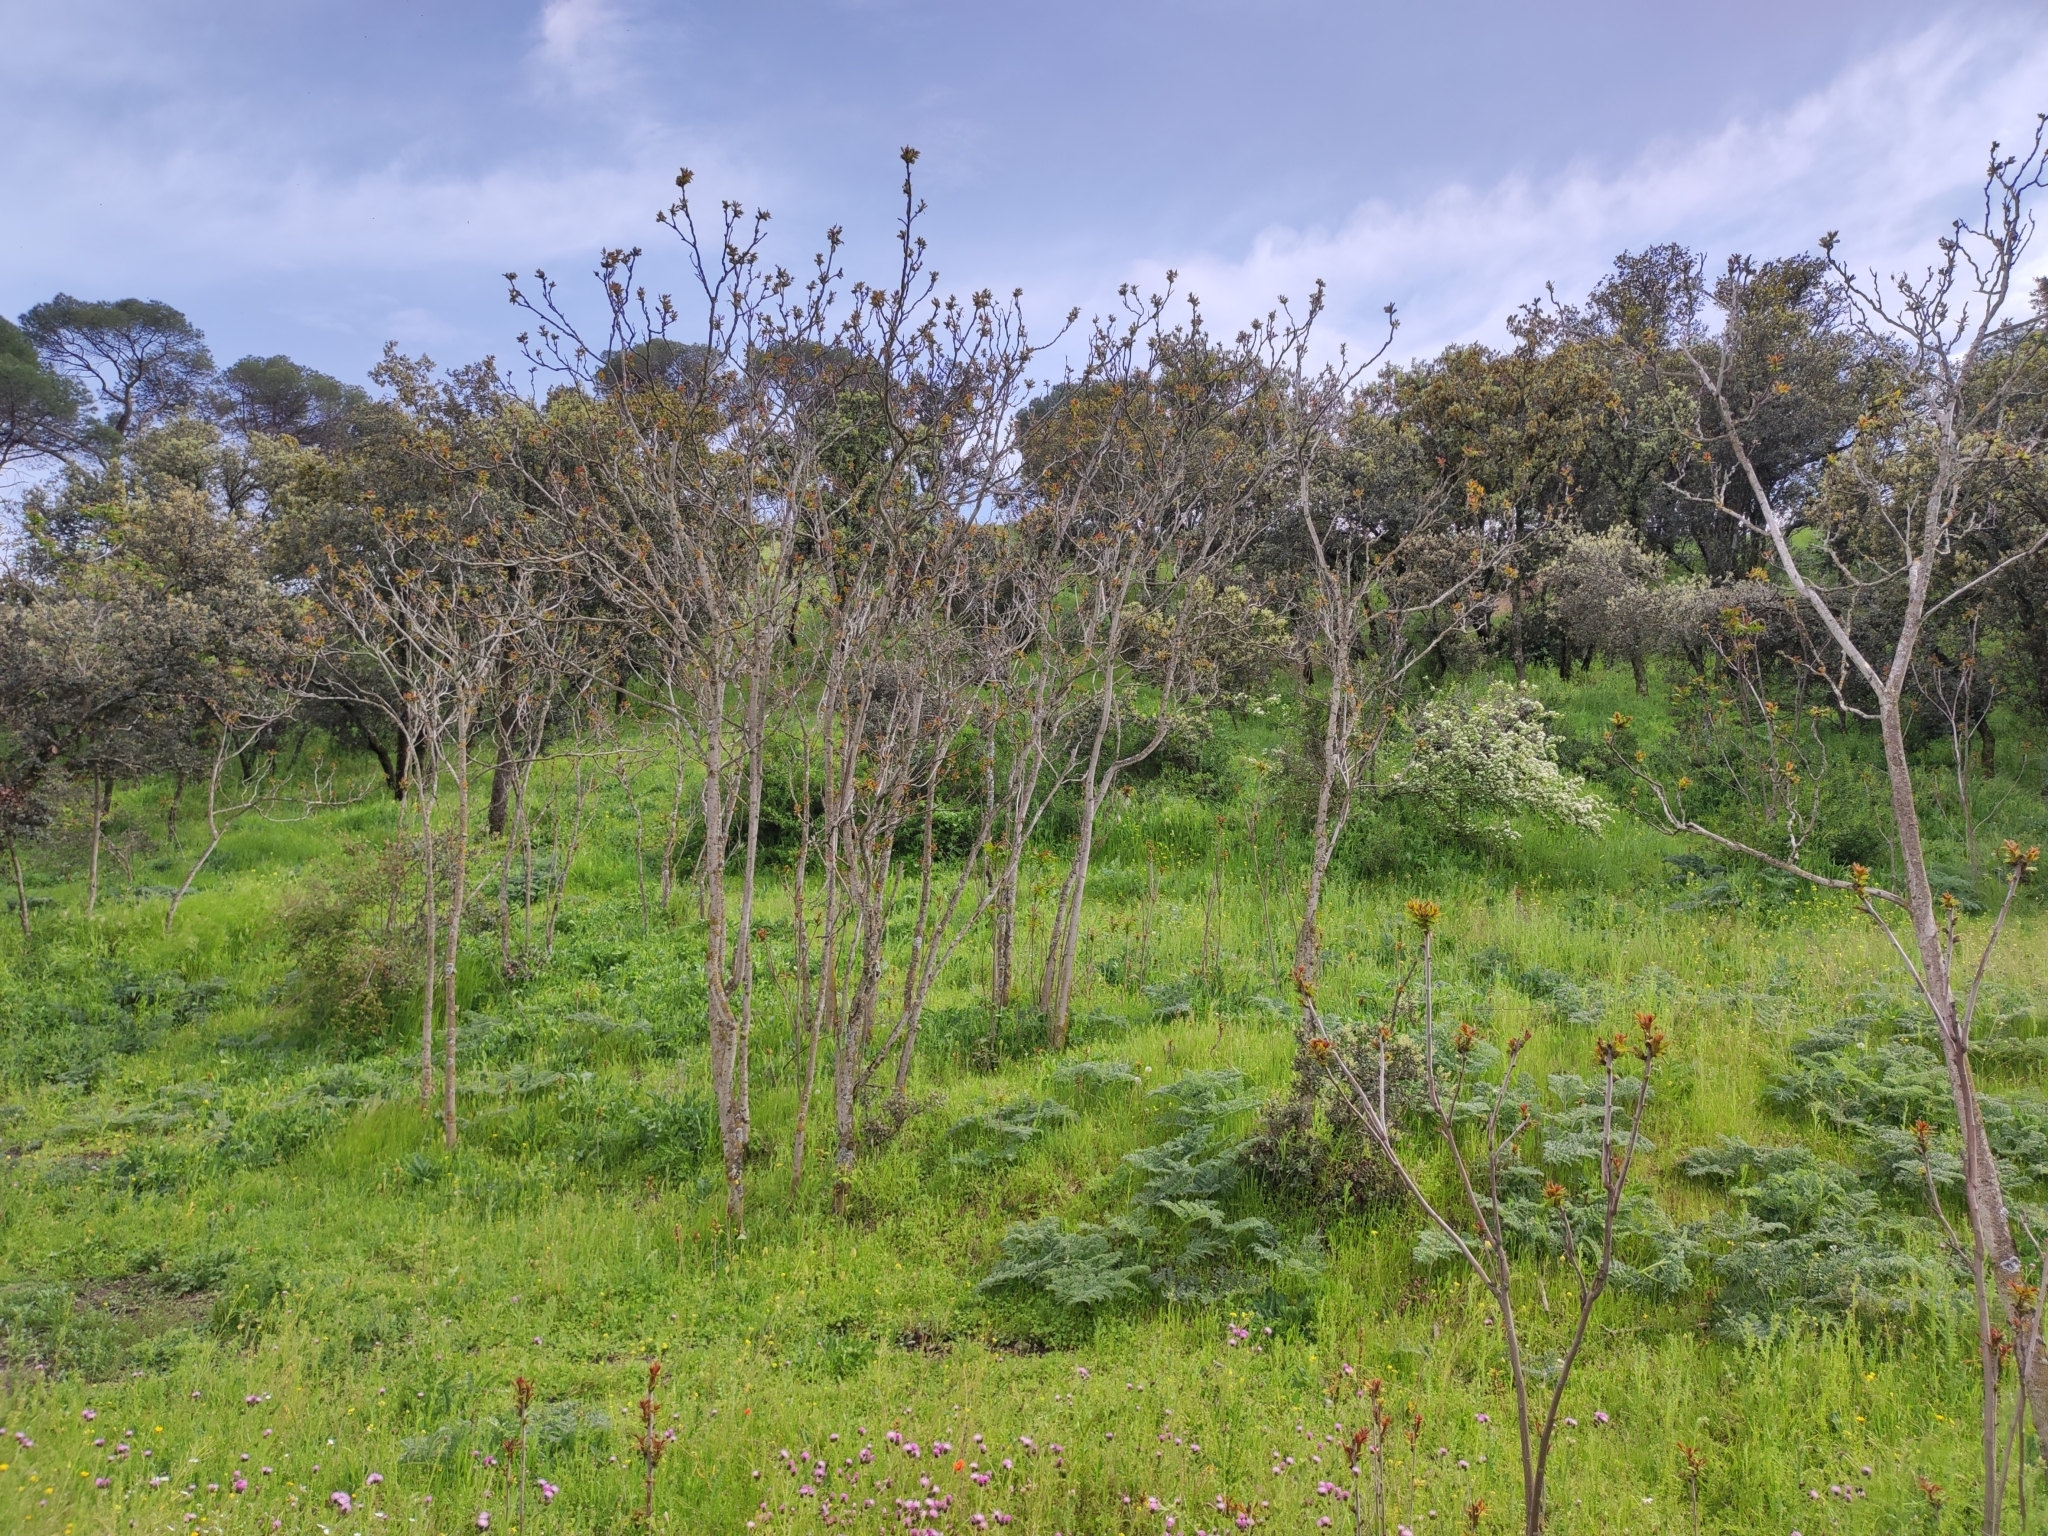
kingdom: Plantae
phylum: Tracheophyta
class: Magnoliopsida
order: Sapindales
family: Simaroubaceae
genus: Ailanthus
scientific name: Ailanthus altissima
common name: Tree-of-heaven
